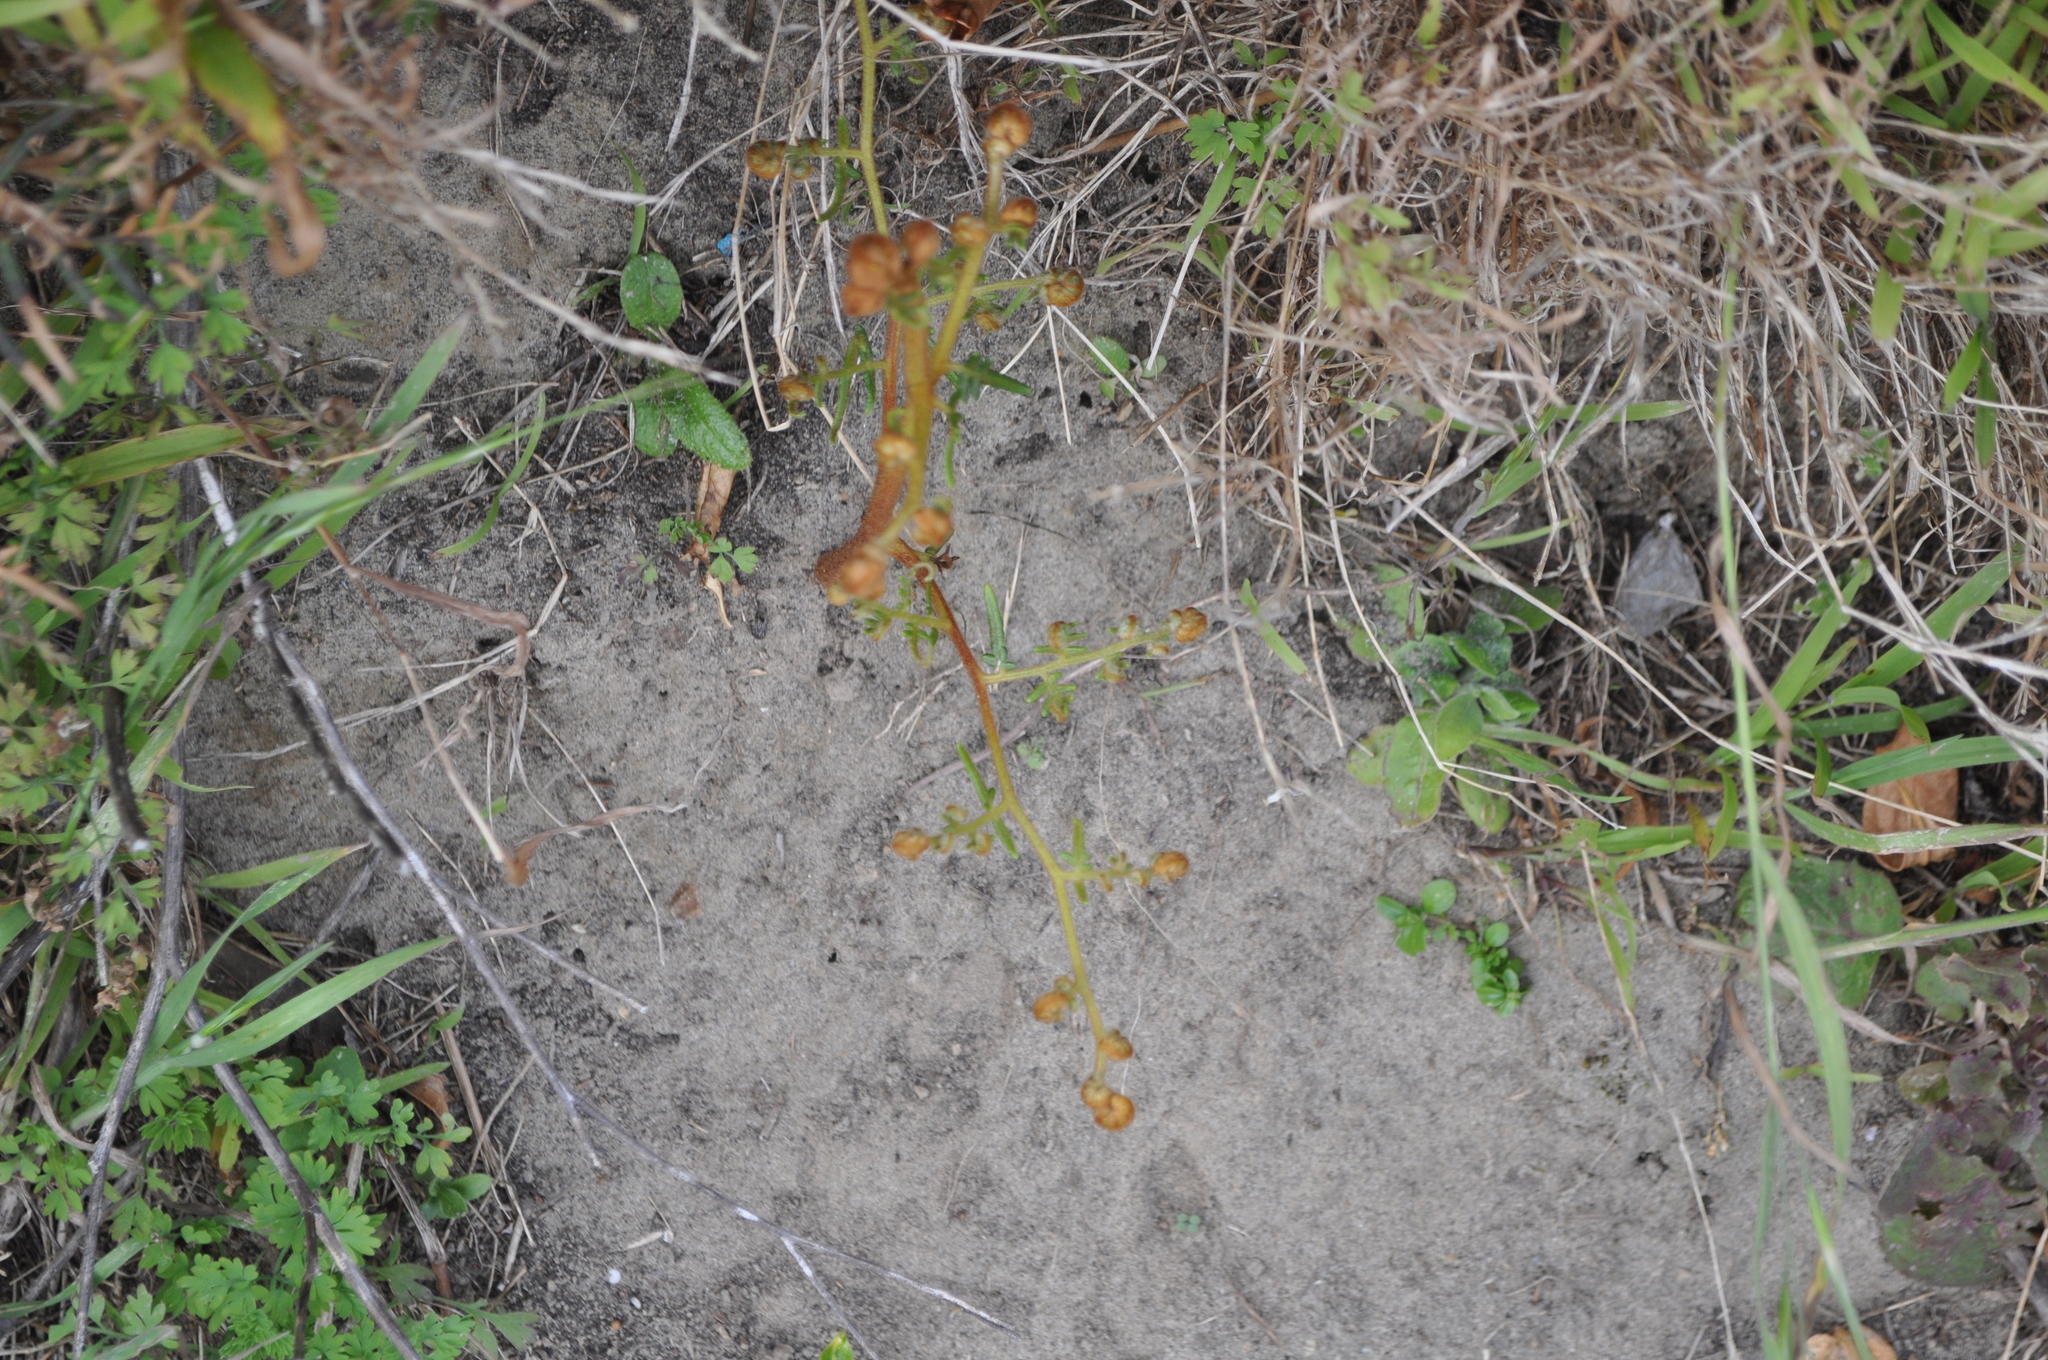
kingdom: Plantae
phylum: Tracheophyta
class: Polypodiopsida
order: Polypodiales
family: Dennstaedtiaceae
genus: Pteridium
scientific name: Pteridium esculentum
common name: Bracken fern
